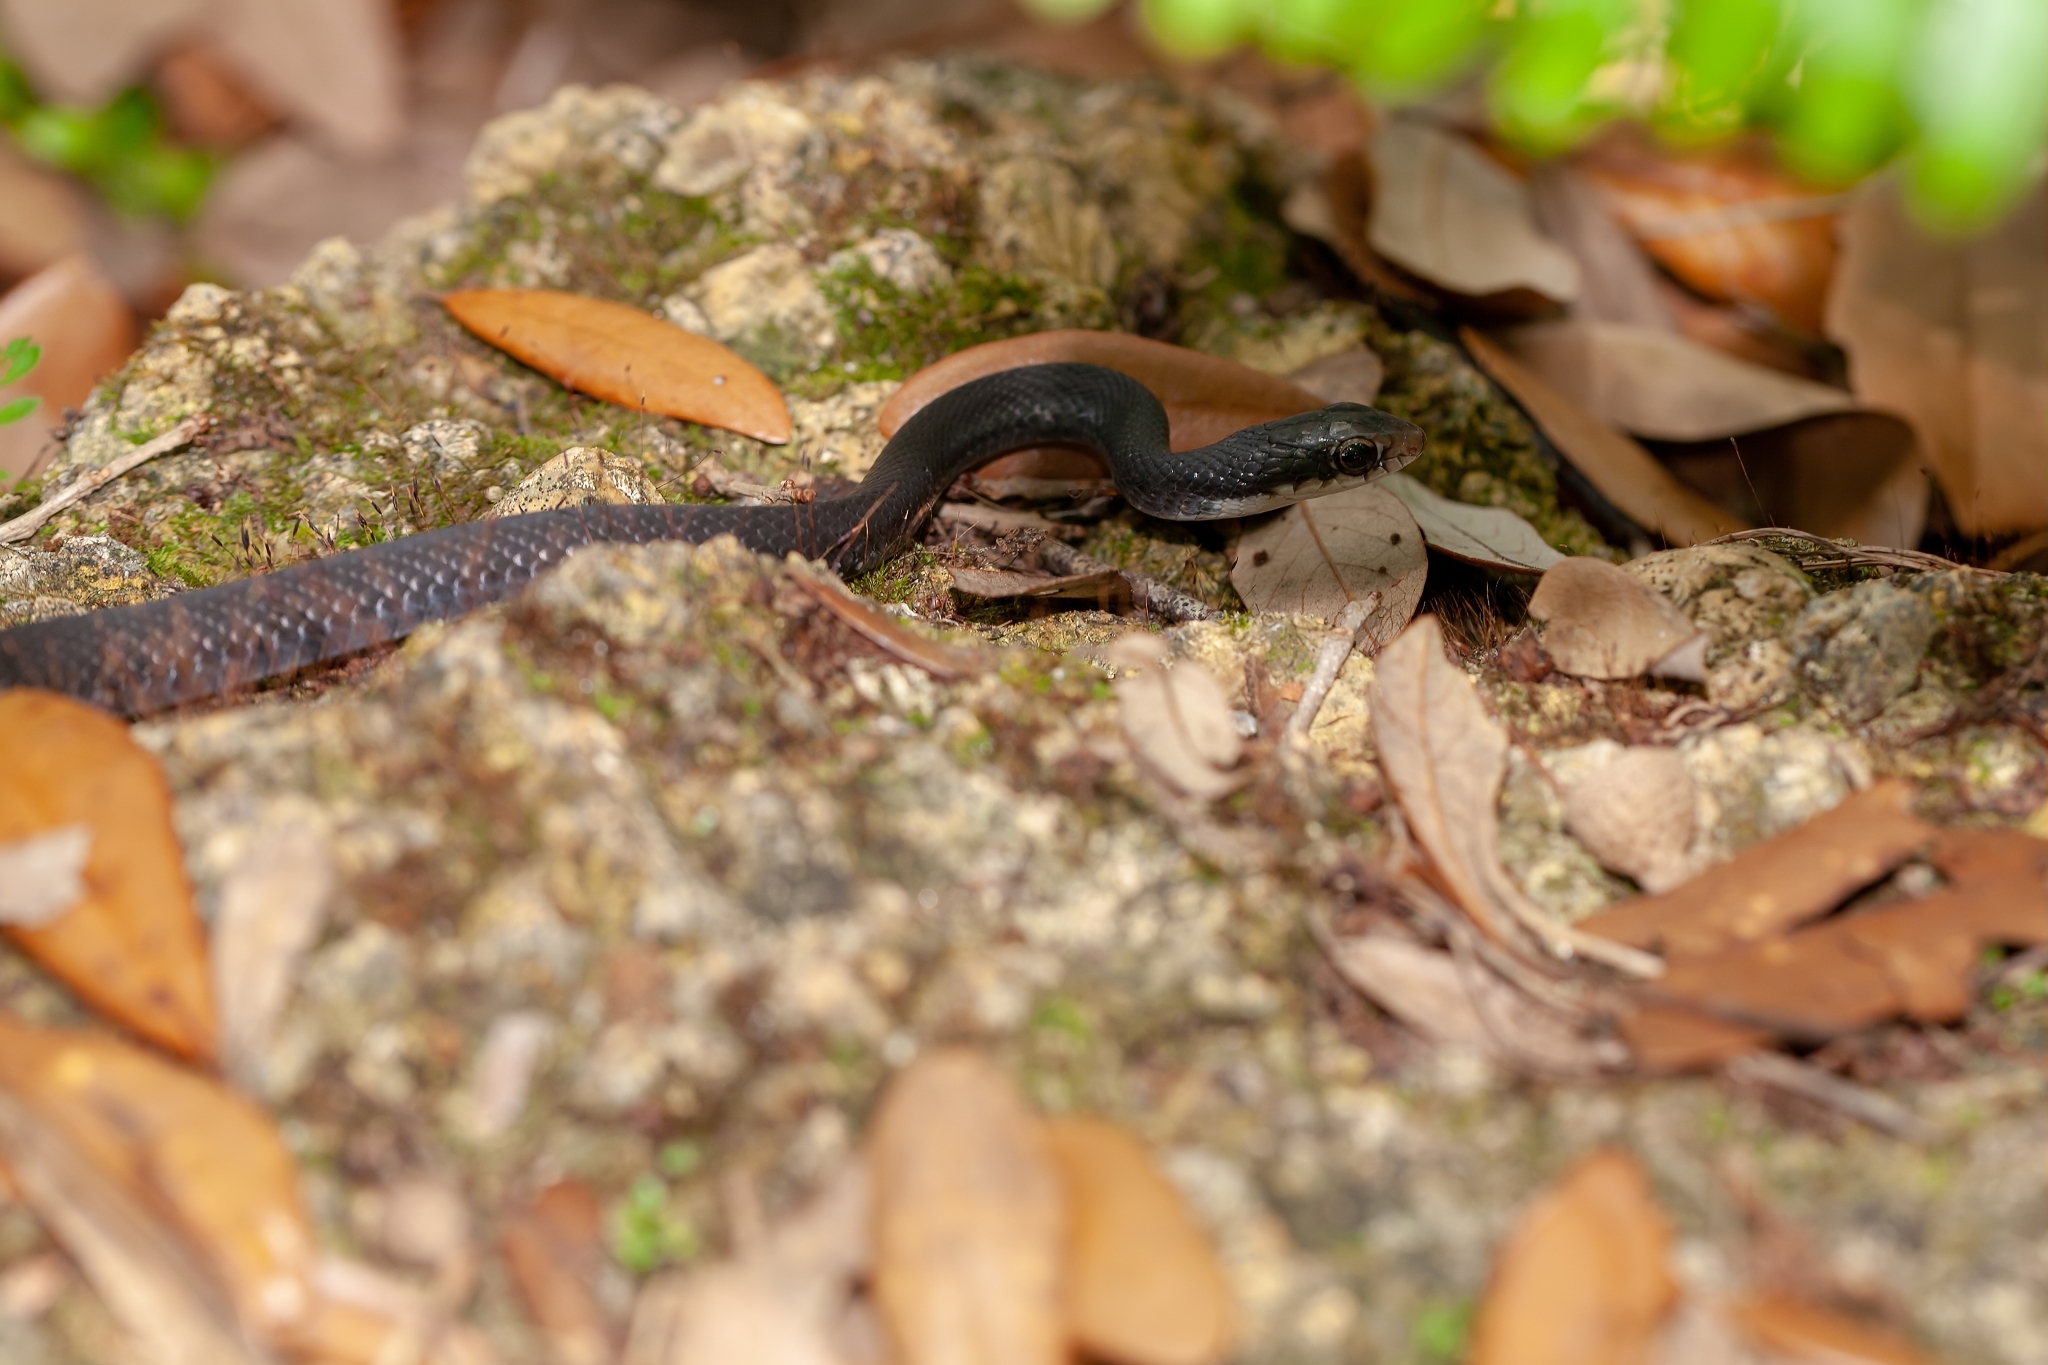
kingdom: Animalia
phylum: Chordata
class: Squamata
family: Colubridae
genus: Coluber
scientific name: Coluber constrictor
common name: Eastern racer
